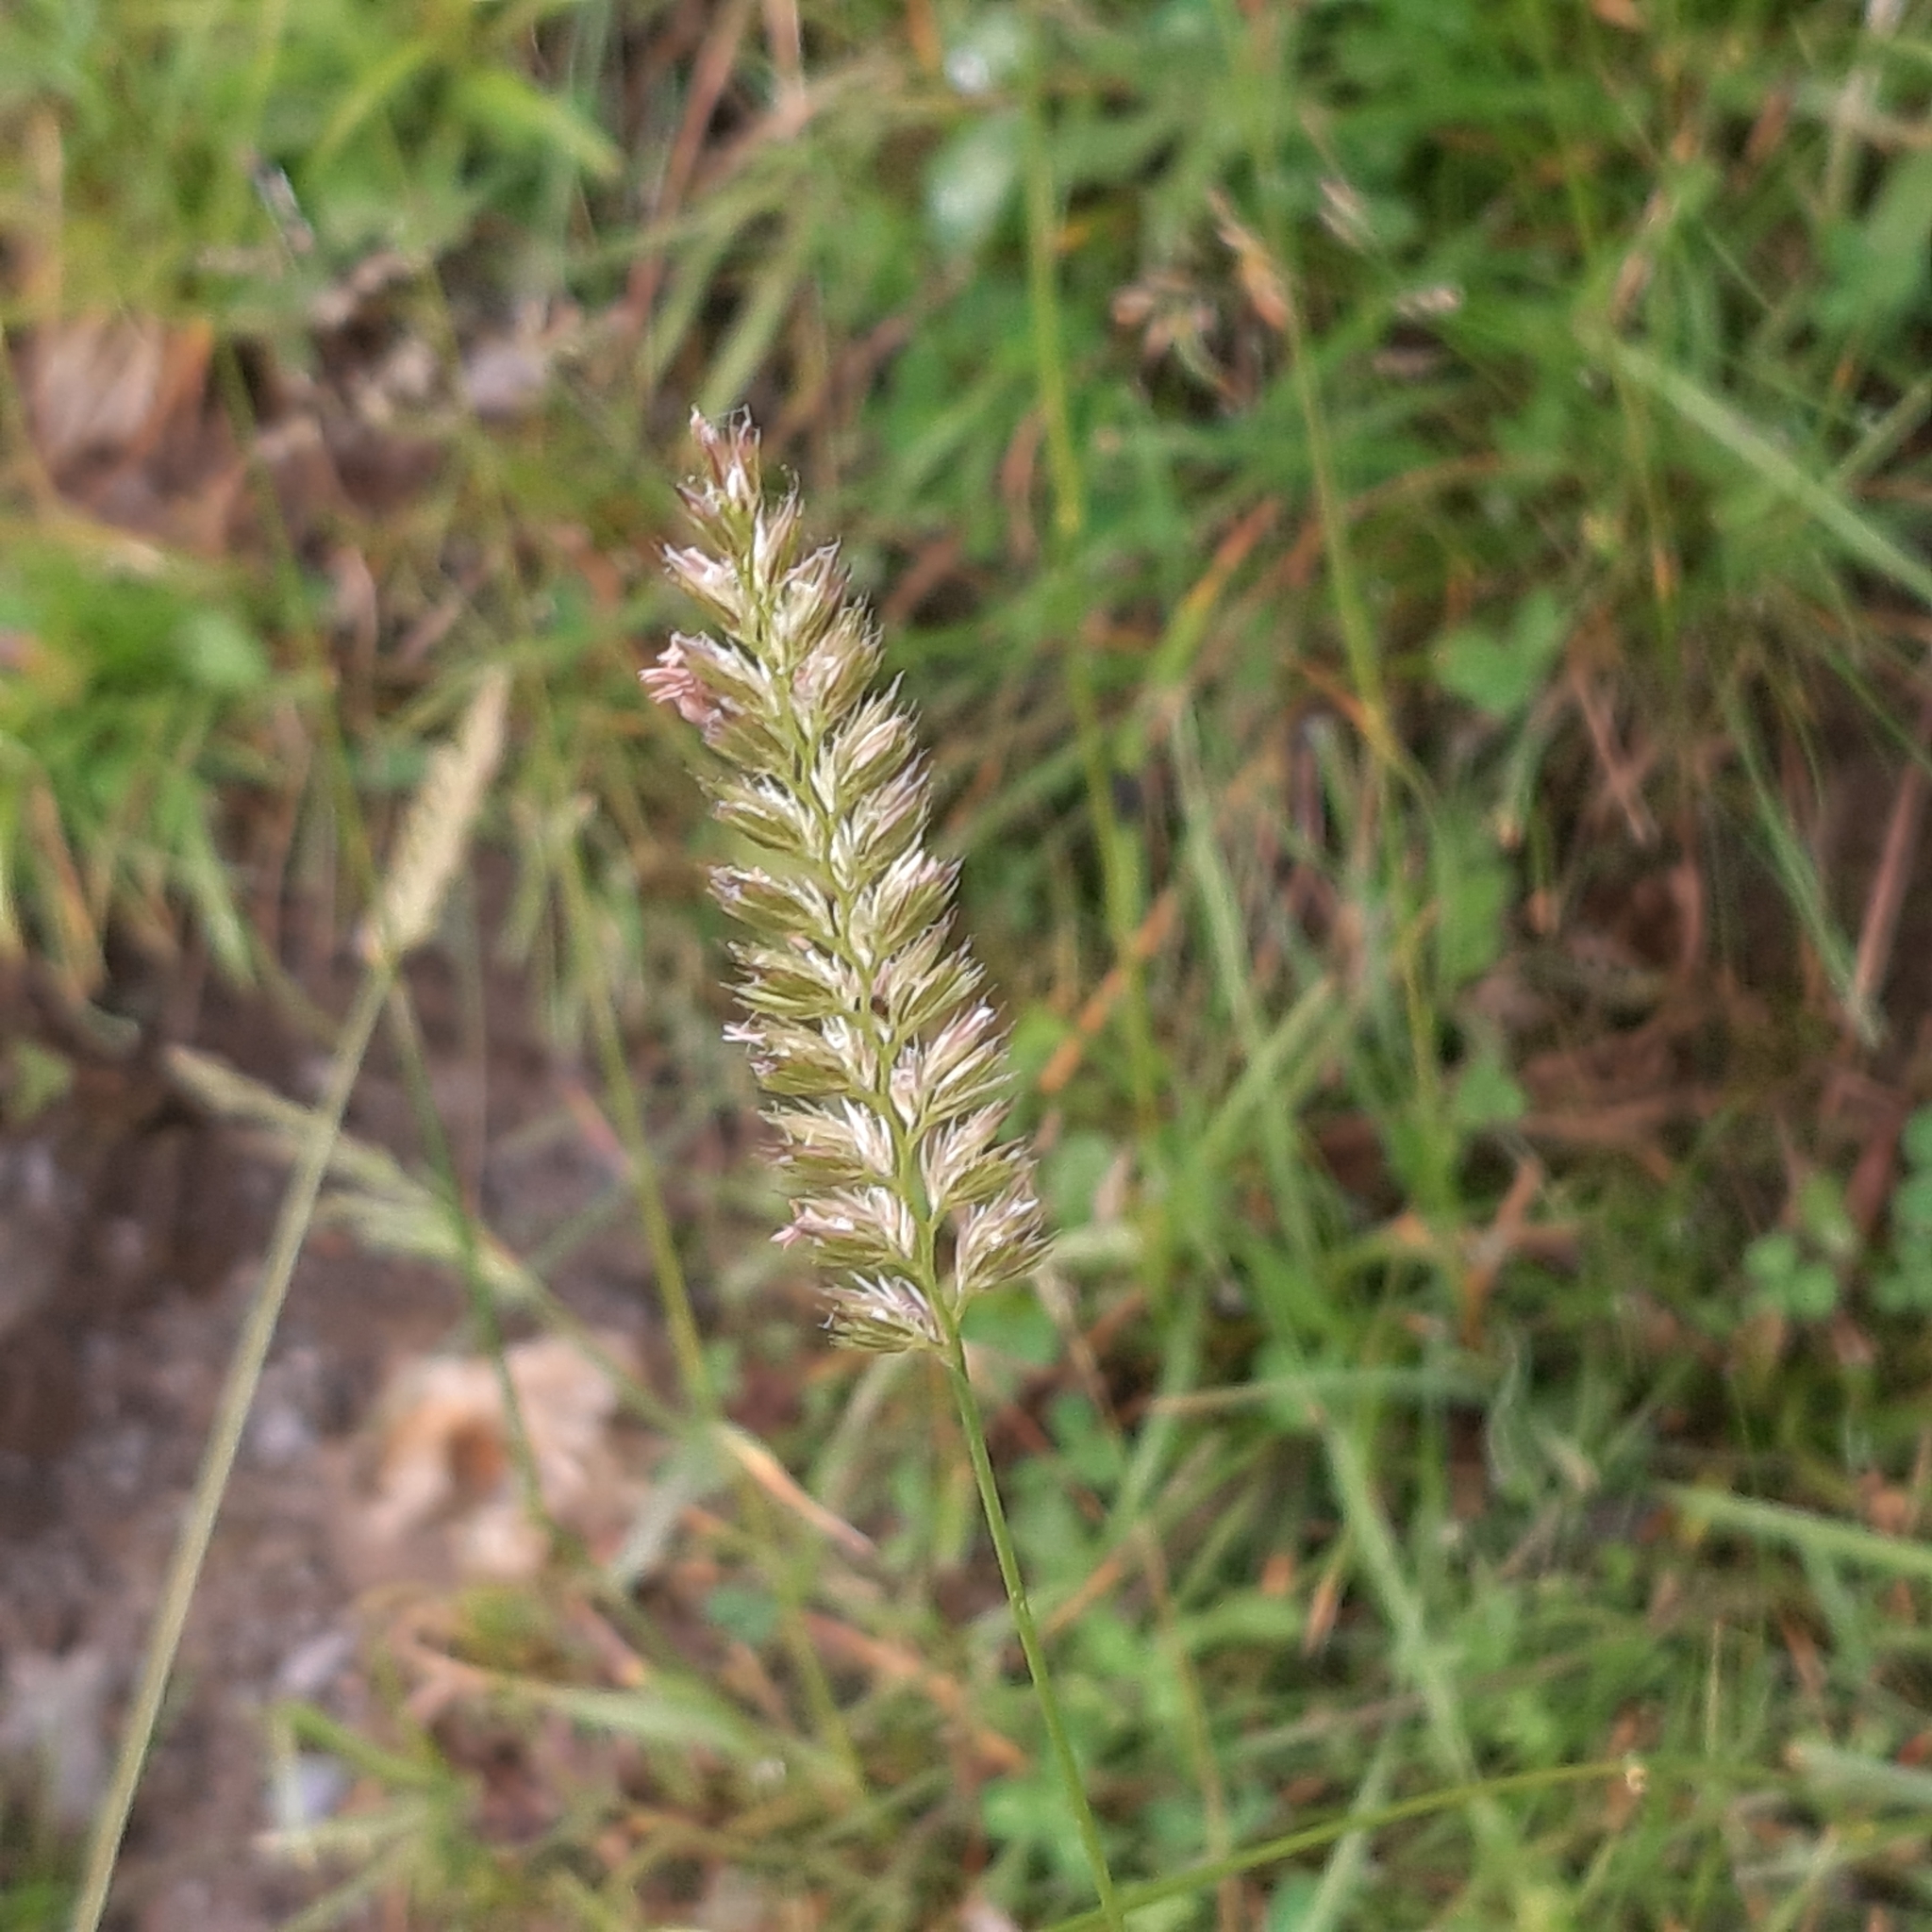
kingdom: Plantae
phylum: Tracheophyta
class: Liliopsida
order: Poales
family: Poaceae
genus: Cynosurus
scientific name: Cynosurus cristatus
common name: Crested dog's-tail
